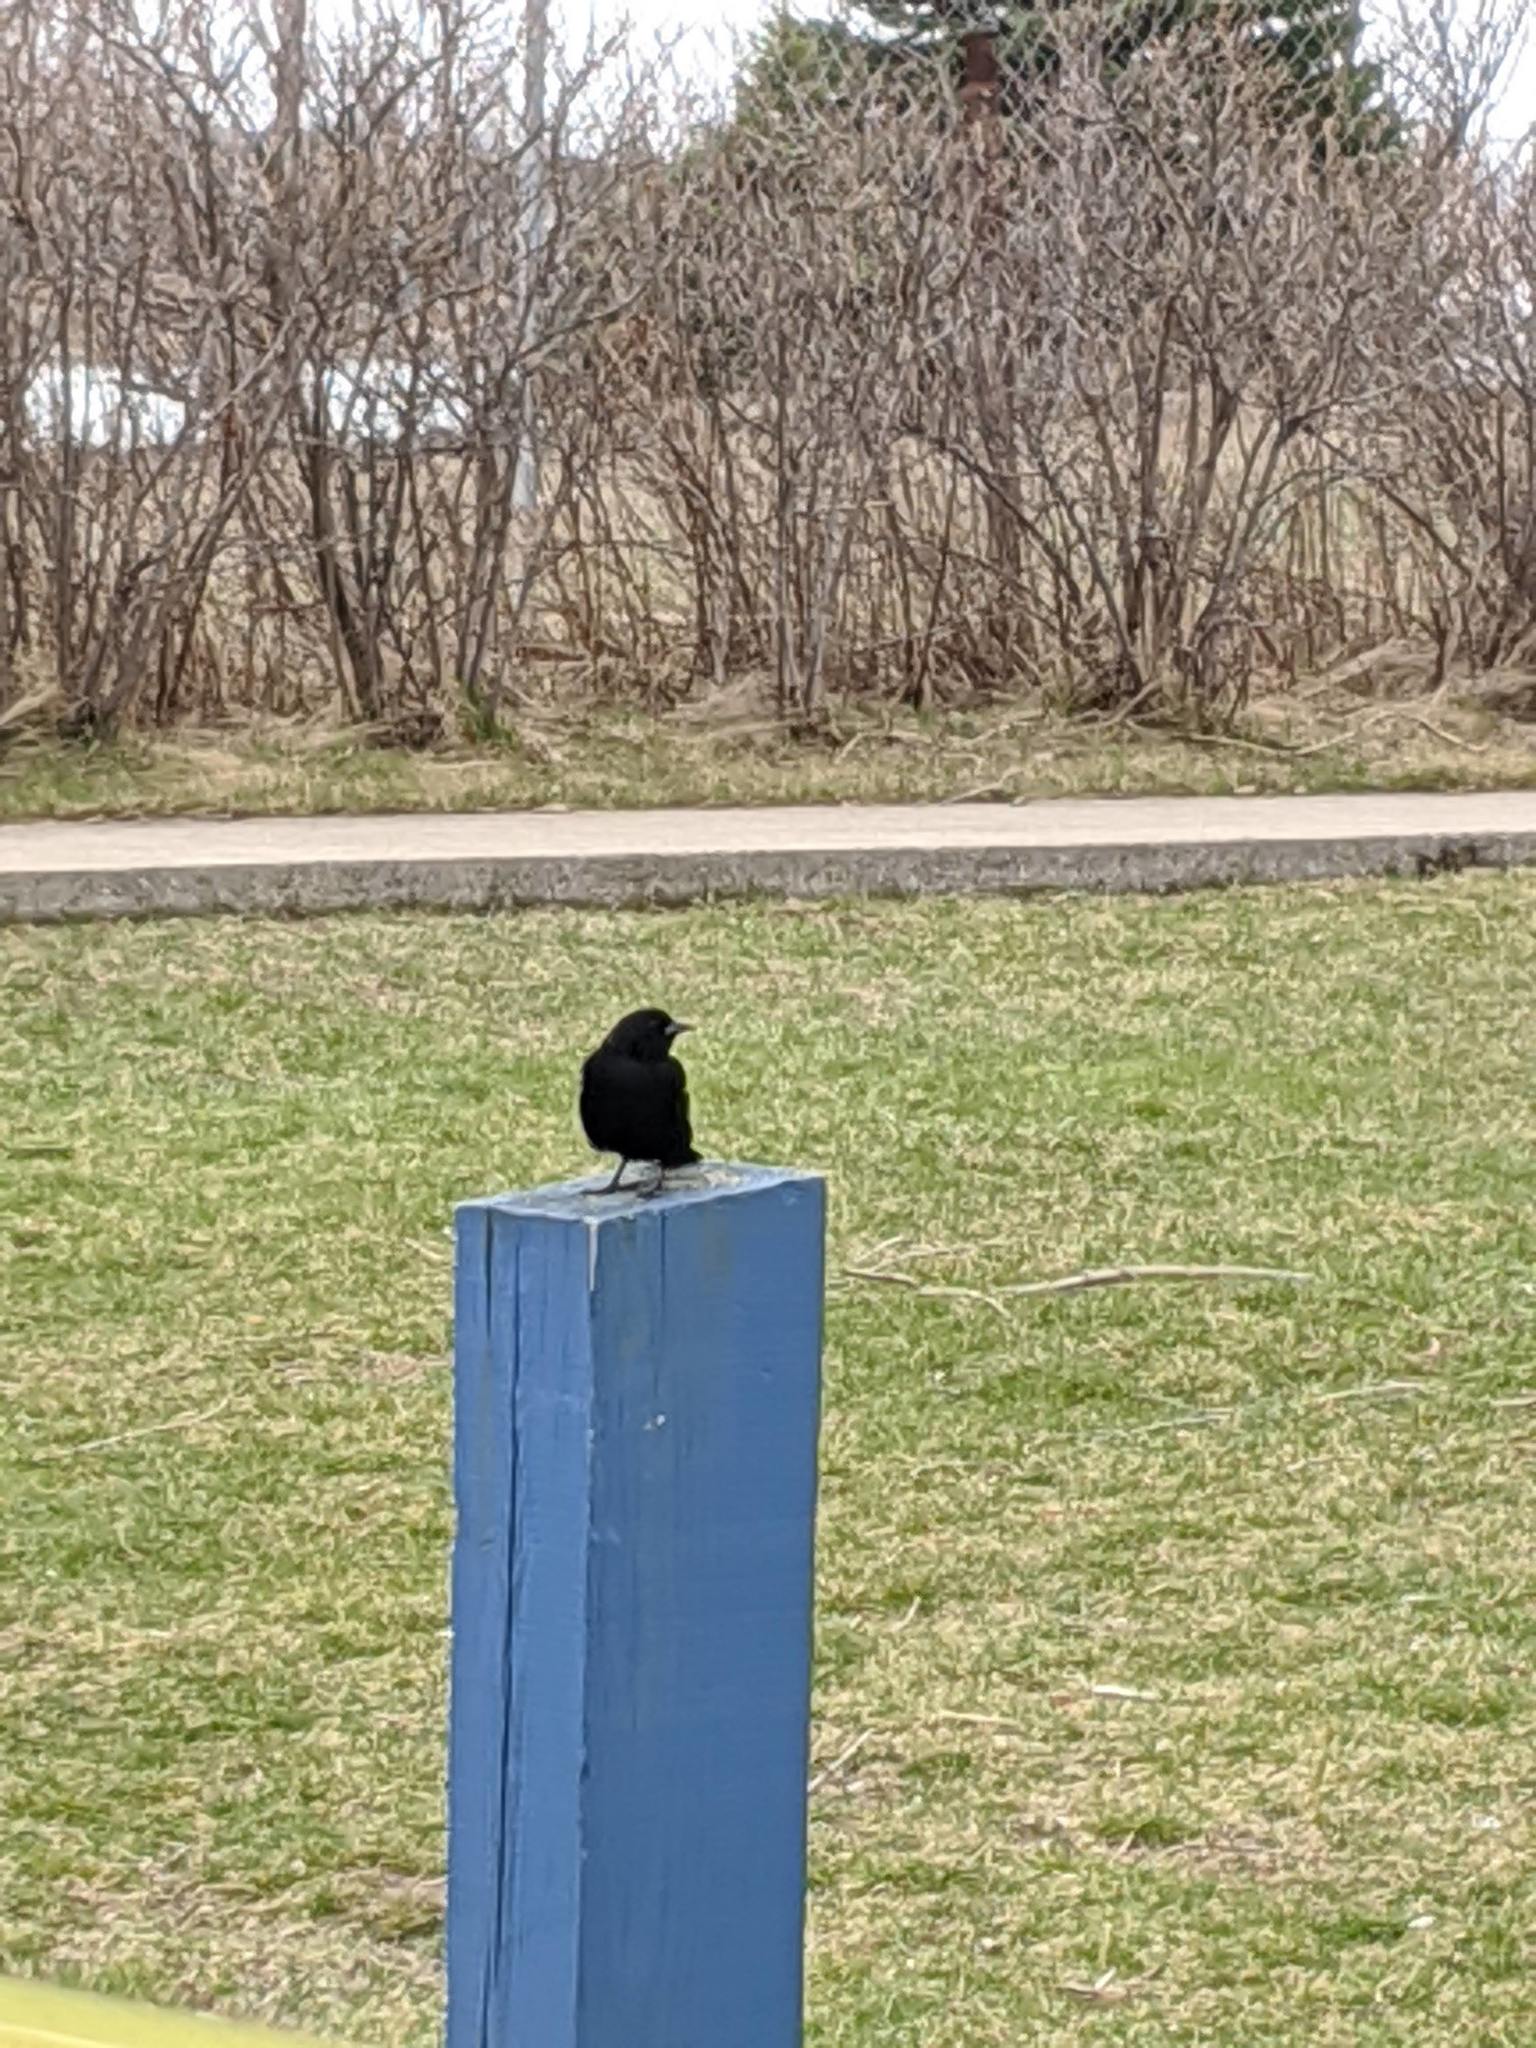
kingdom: Animalia
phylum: Chordata
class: Aves
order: Passeriformes
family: Icteridae
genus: Agelaius
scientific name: Agelaius phoeniceus
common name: Red-winged blackbird
